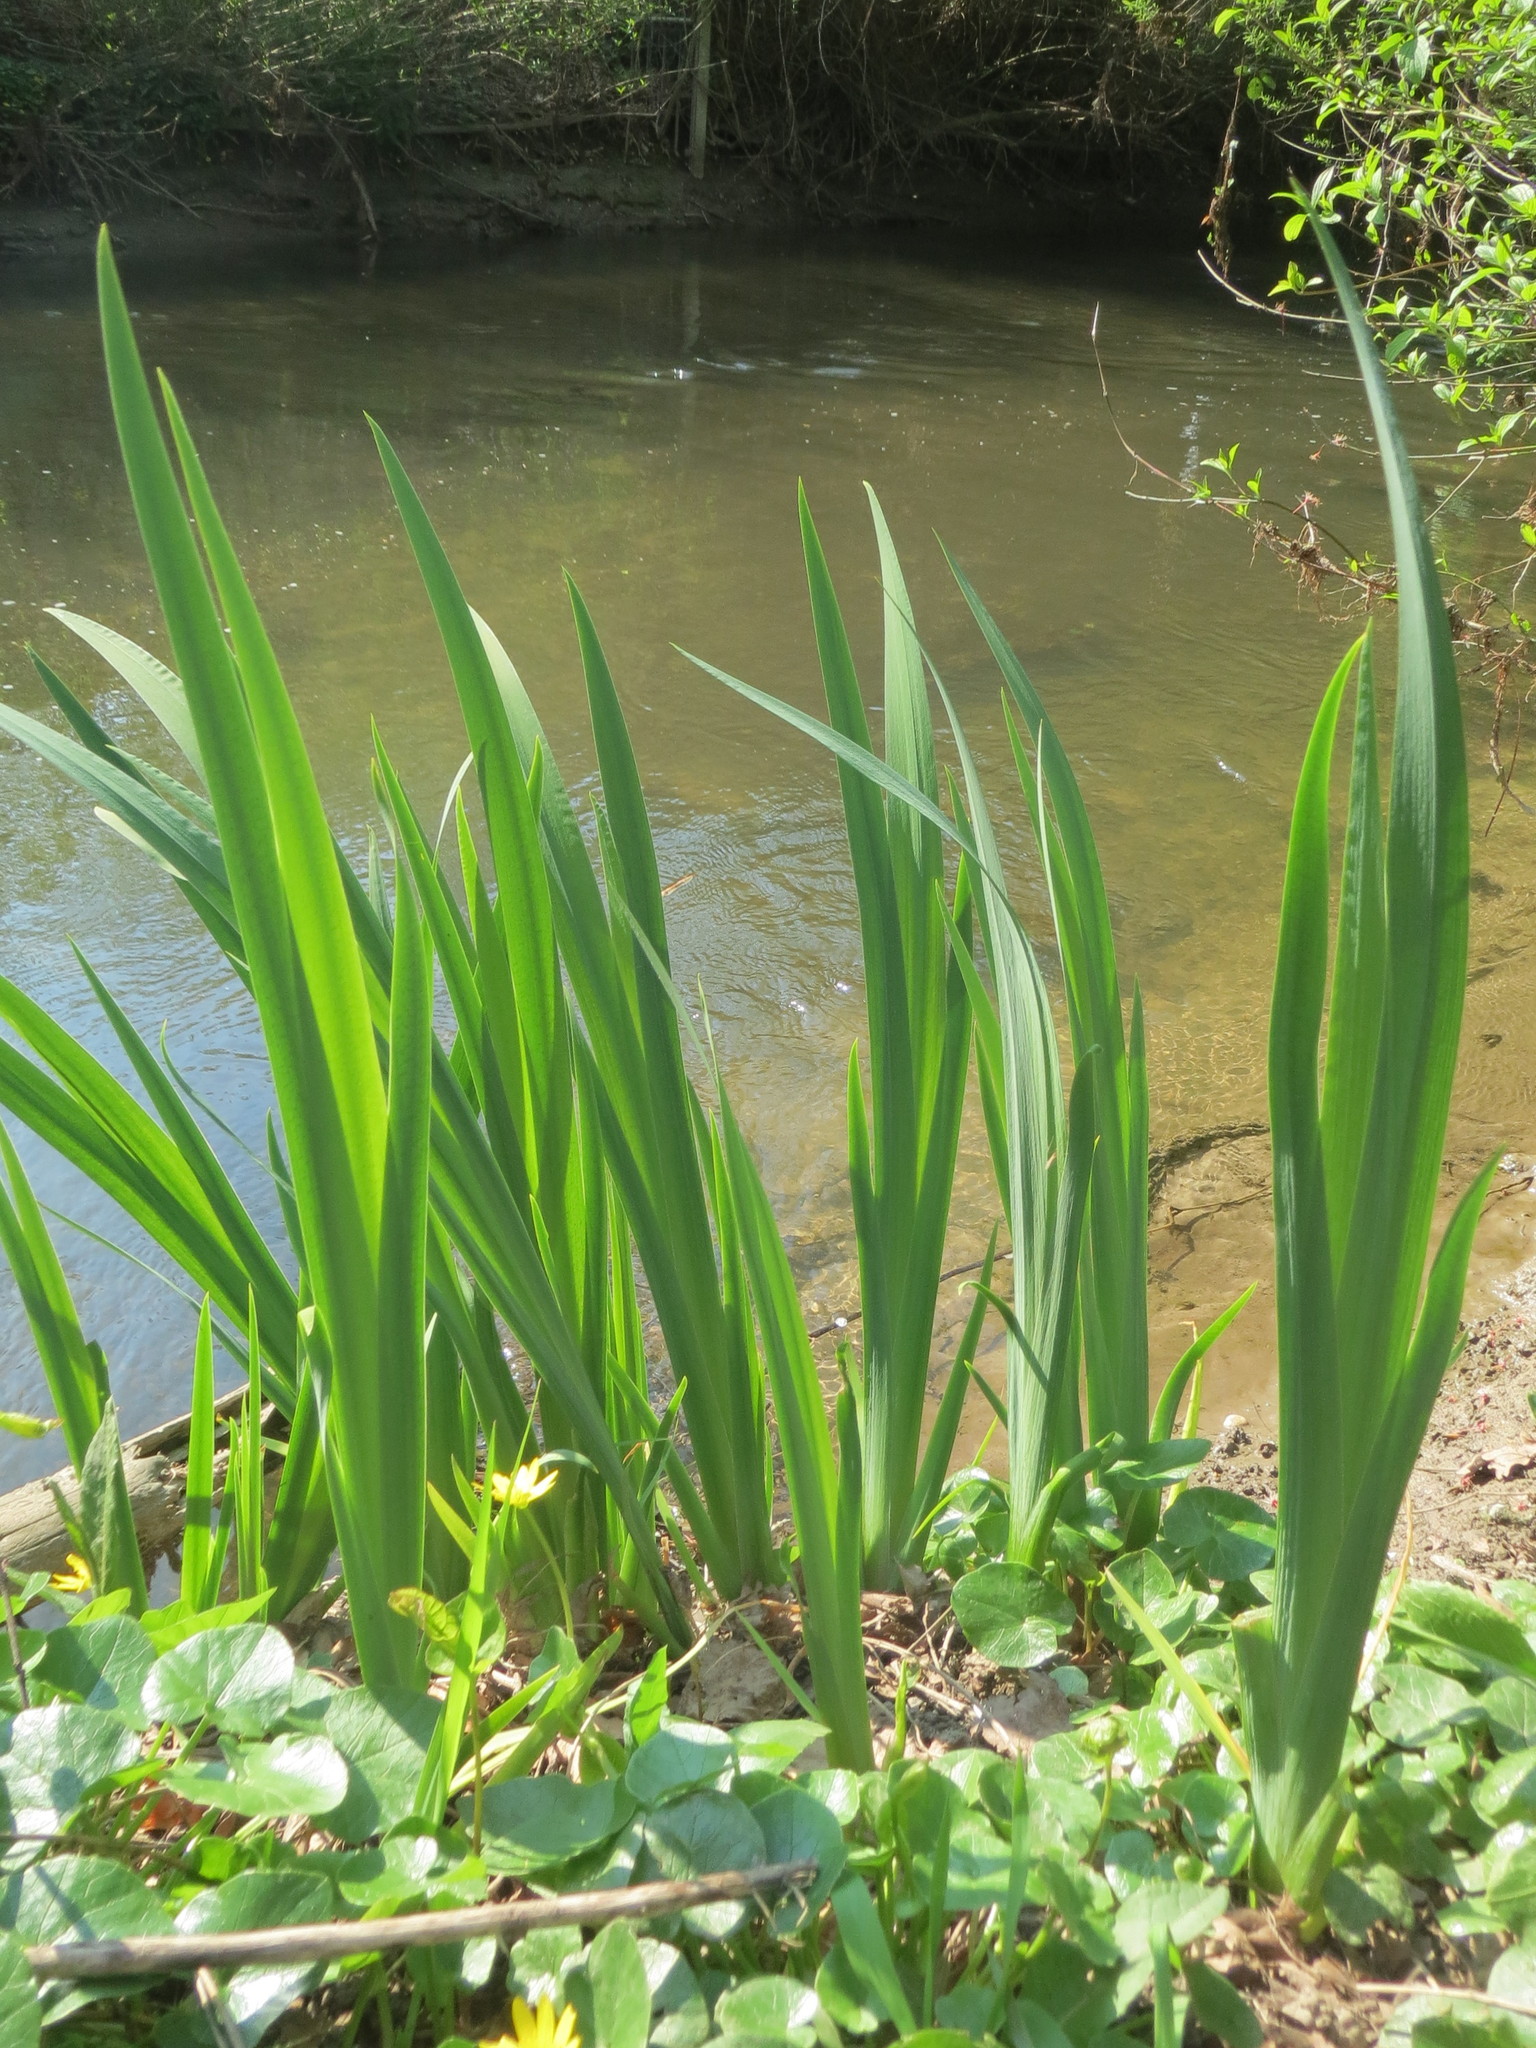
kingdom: Plantae
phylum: Tracheophyta
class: Liliopsida
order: Asparagales
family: Iridaceae
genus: Iris
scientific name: Iris pseudacorus
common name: Yellow flag
